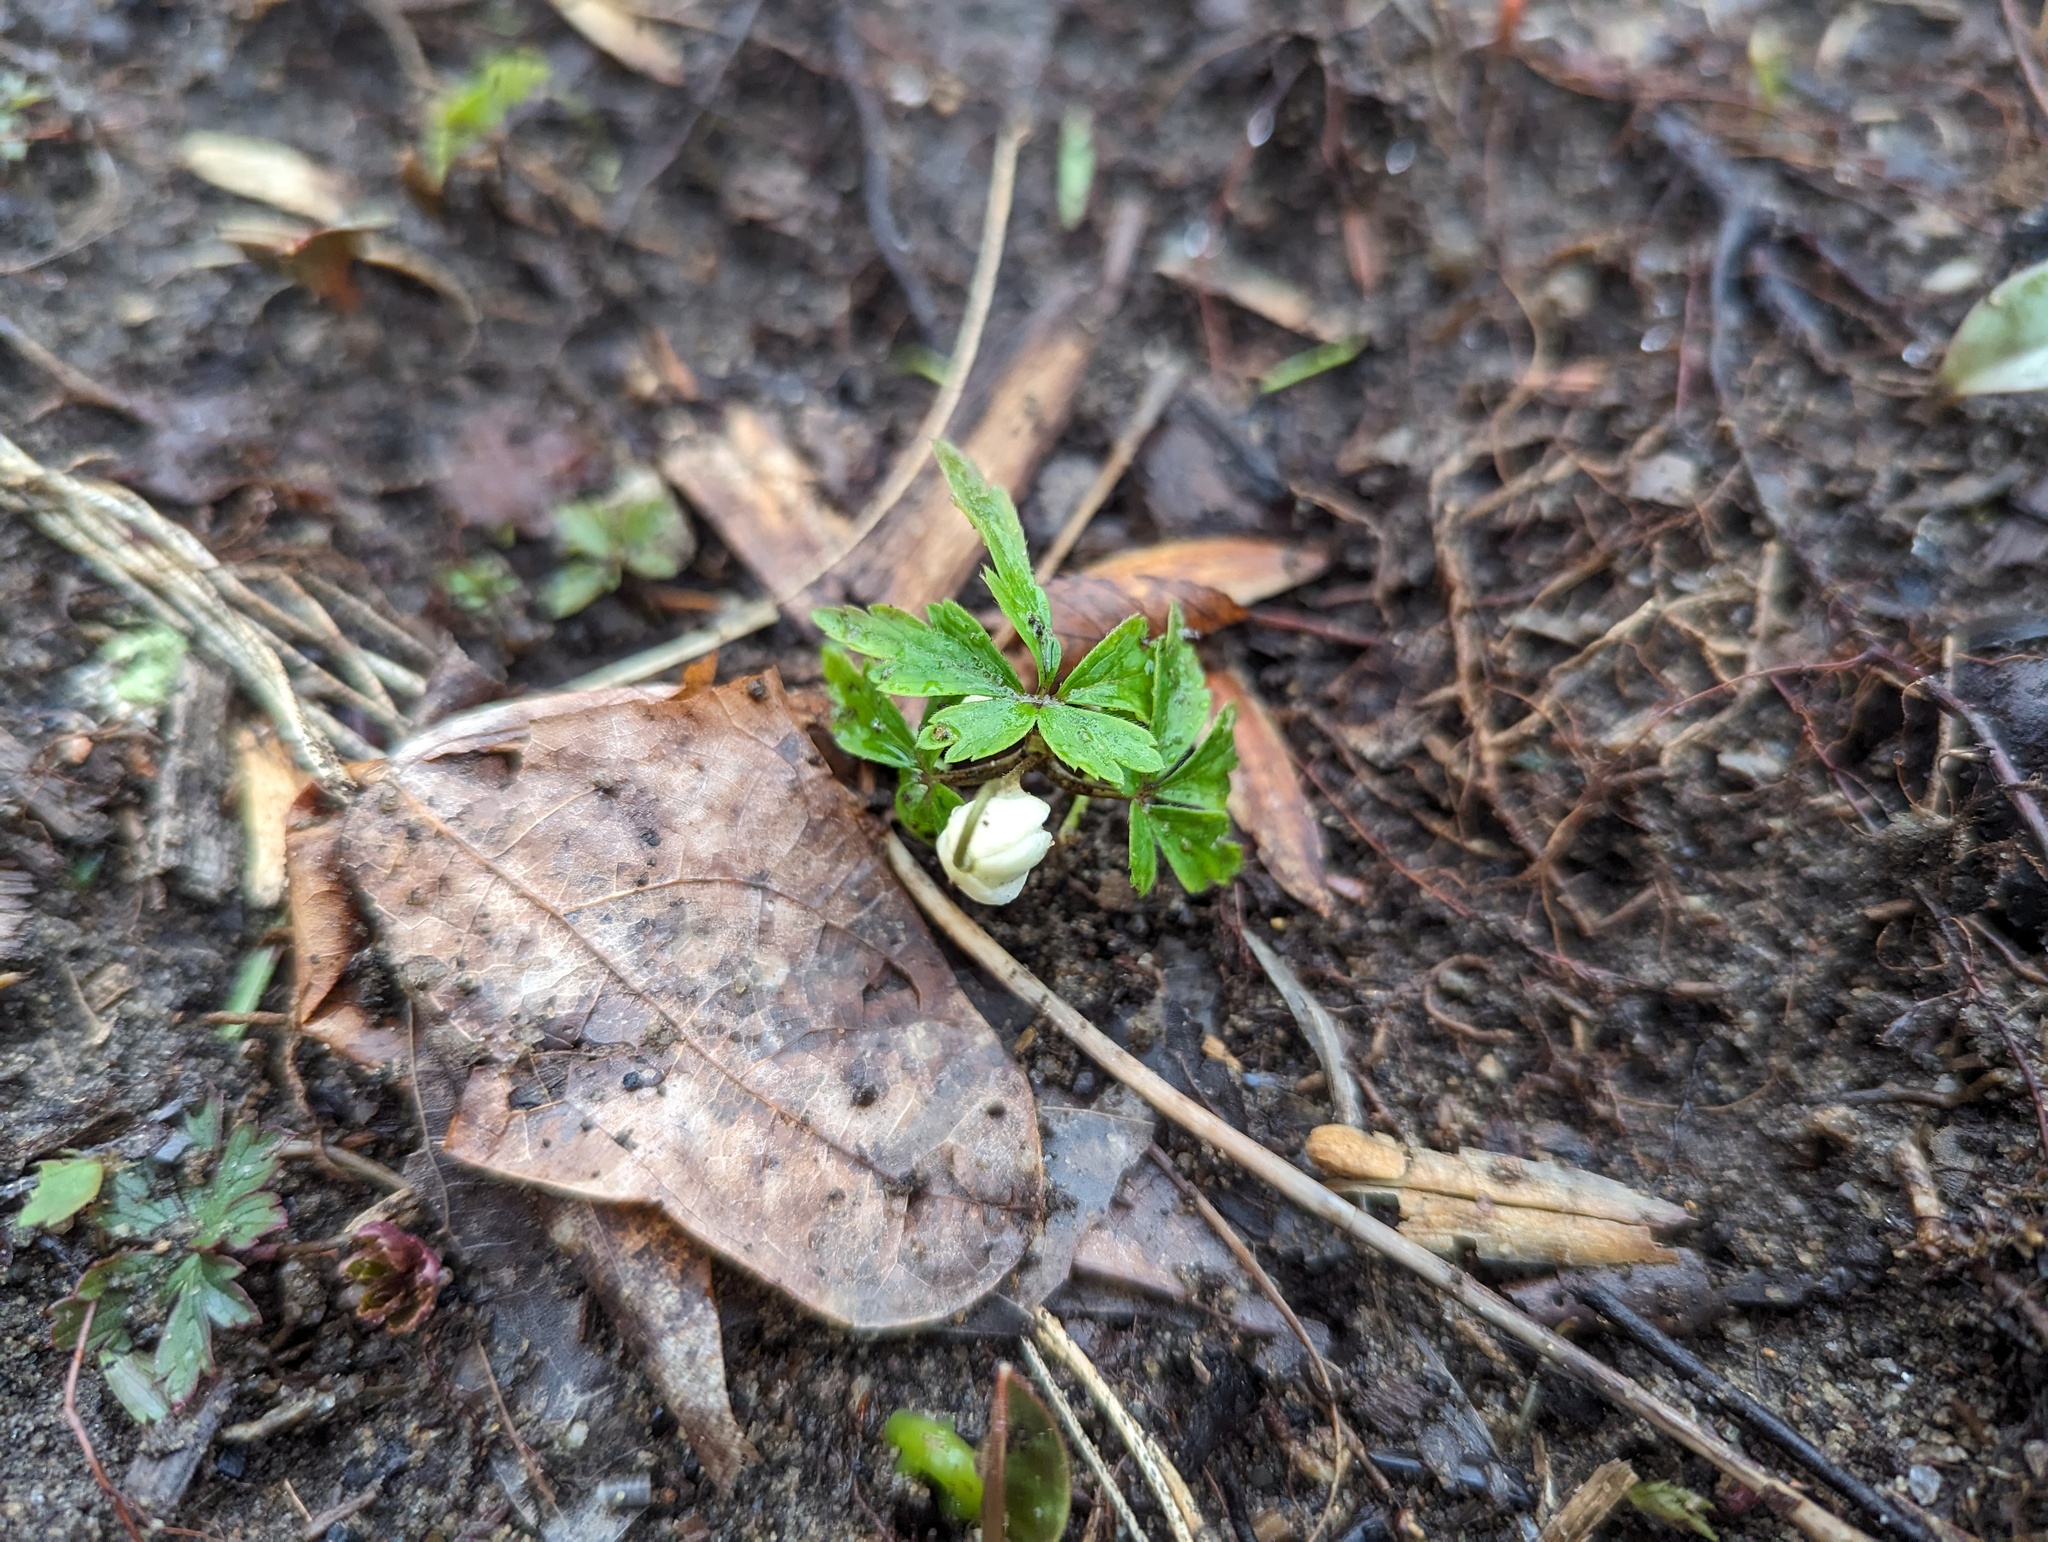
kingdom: Plantae
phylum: Tracheophyta
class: Magnoliopsida
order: Ranunculales
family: Ranunculaceae
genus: Anemone
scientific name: Anemone quinquefolia
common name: Wood anemone
